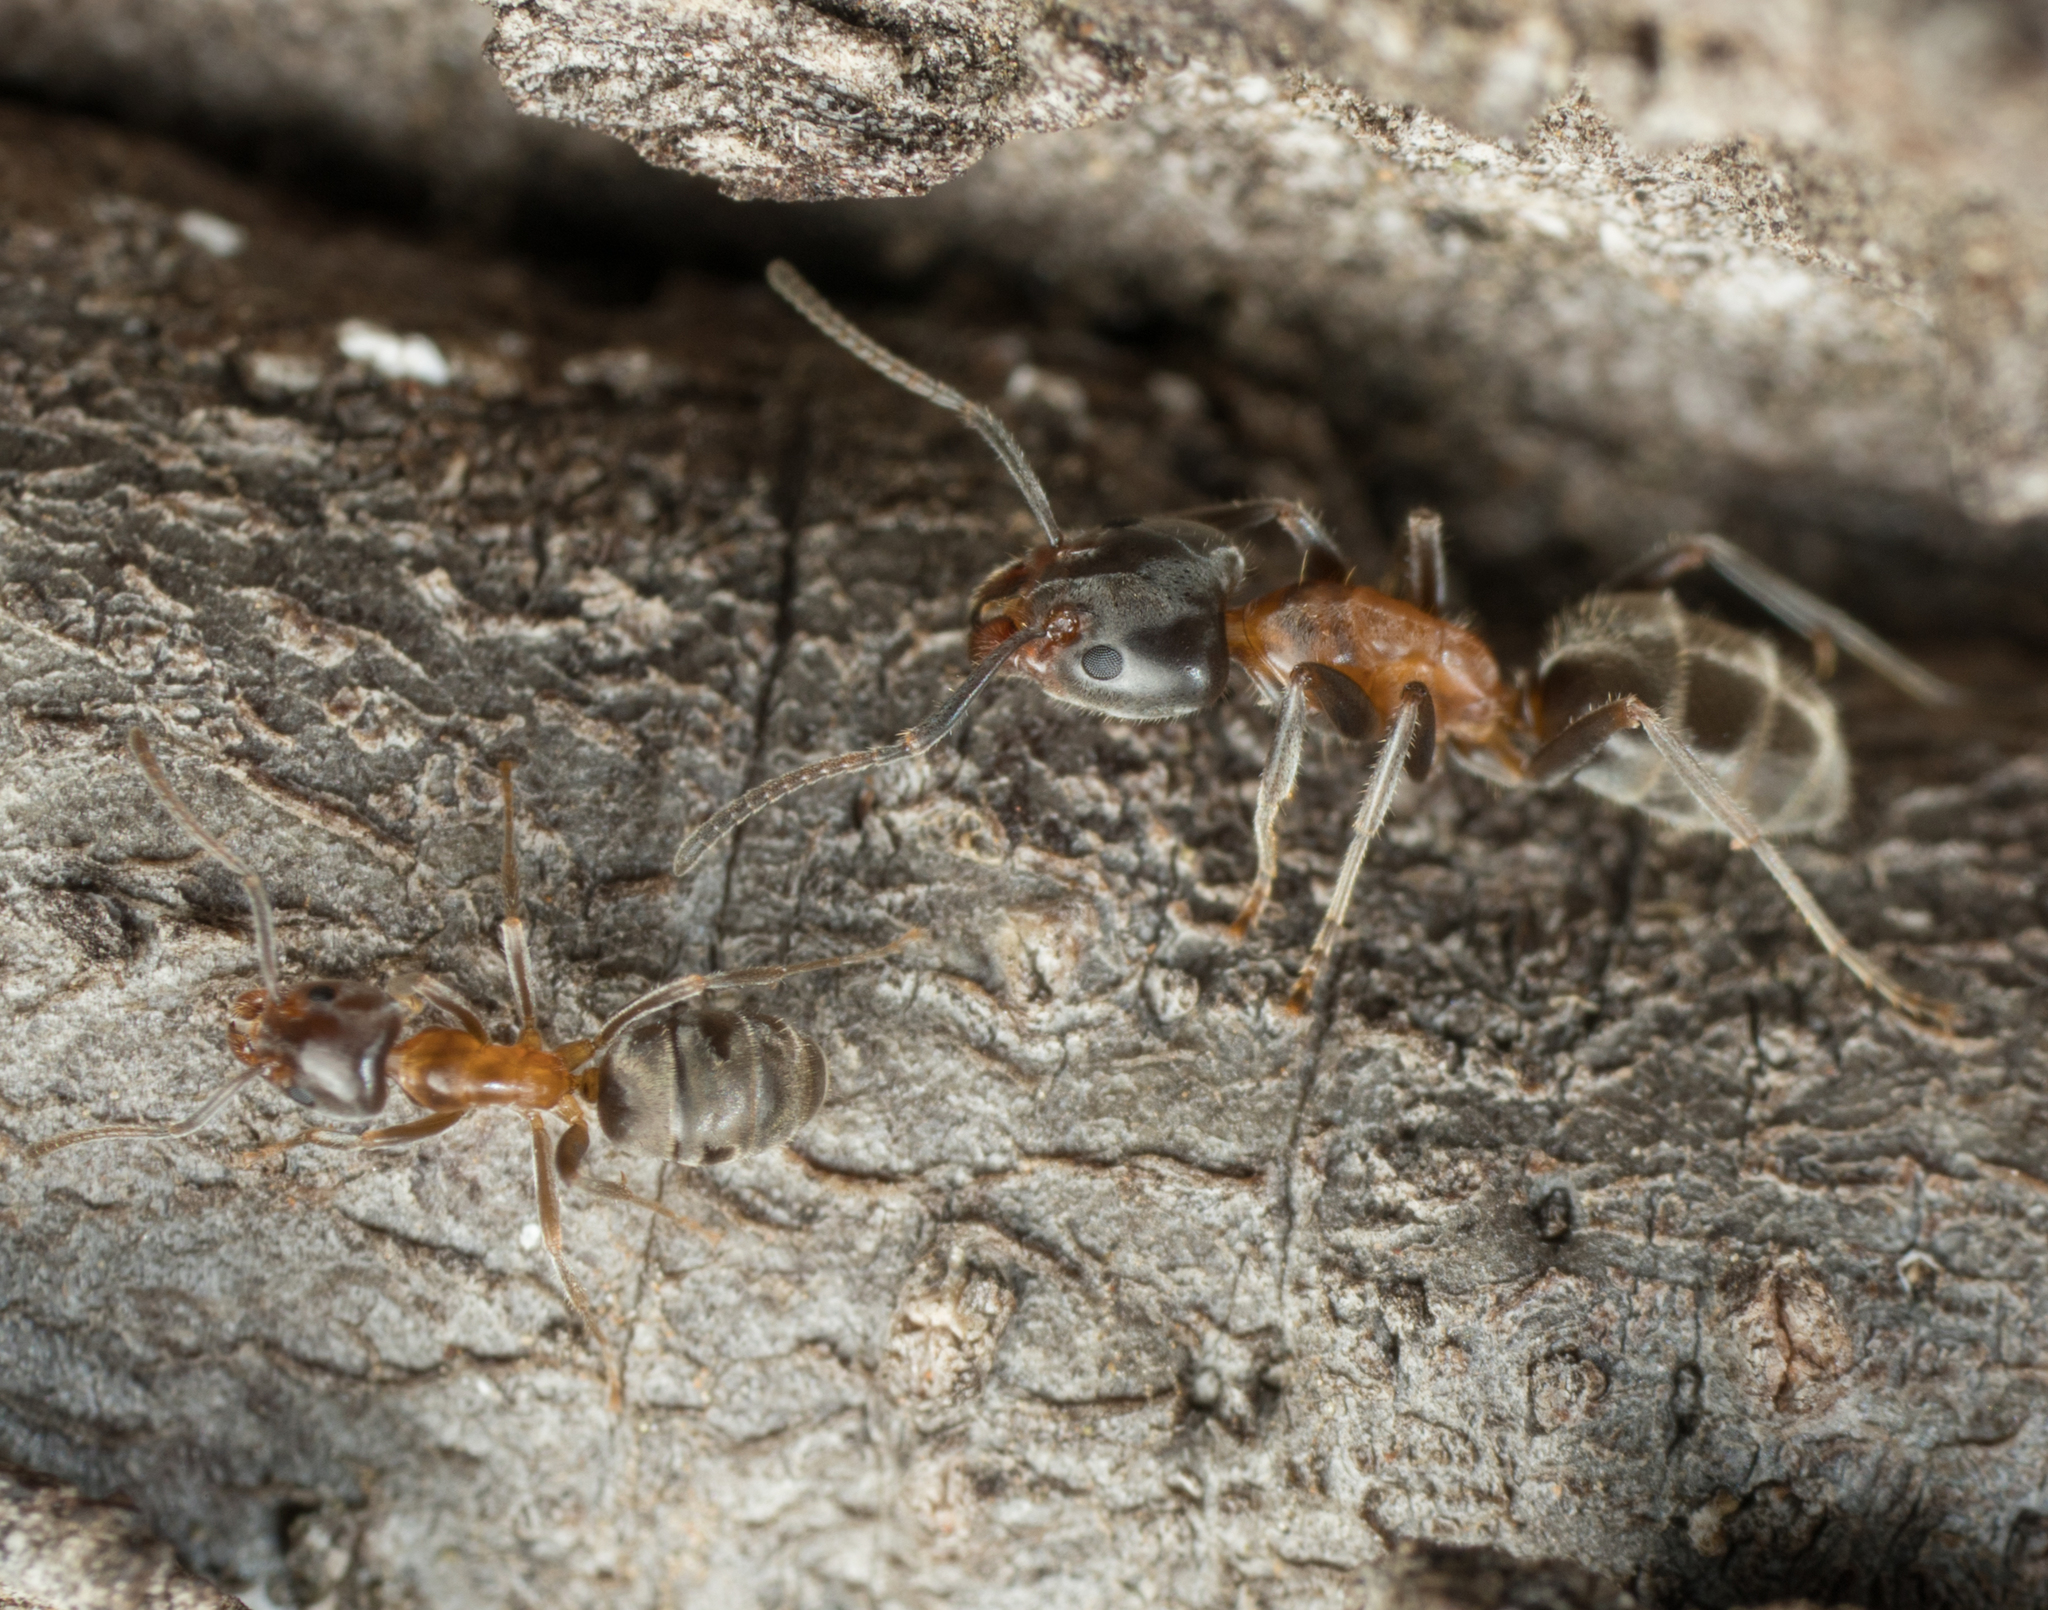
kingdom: Animalia
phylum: Arthropoda
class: Insecta
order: Hymenoptera
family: Formicidae
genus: Liometopum
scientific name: Liometopum occidentale
